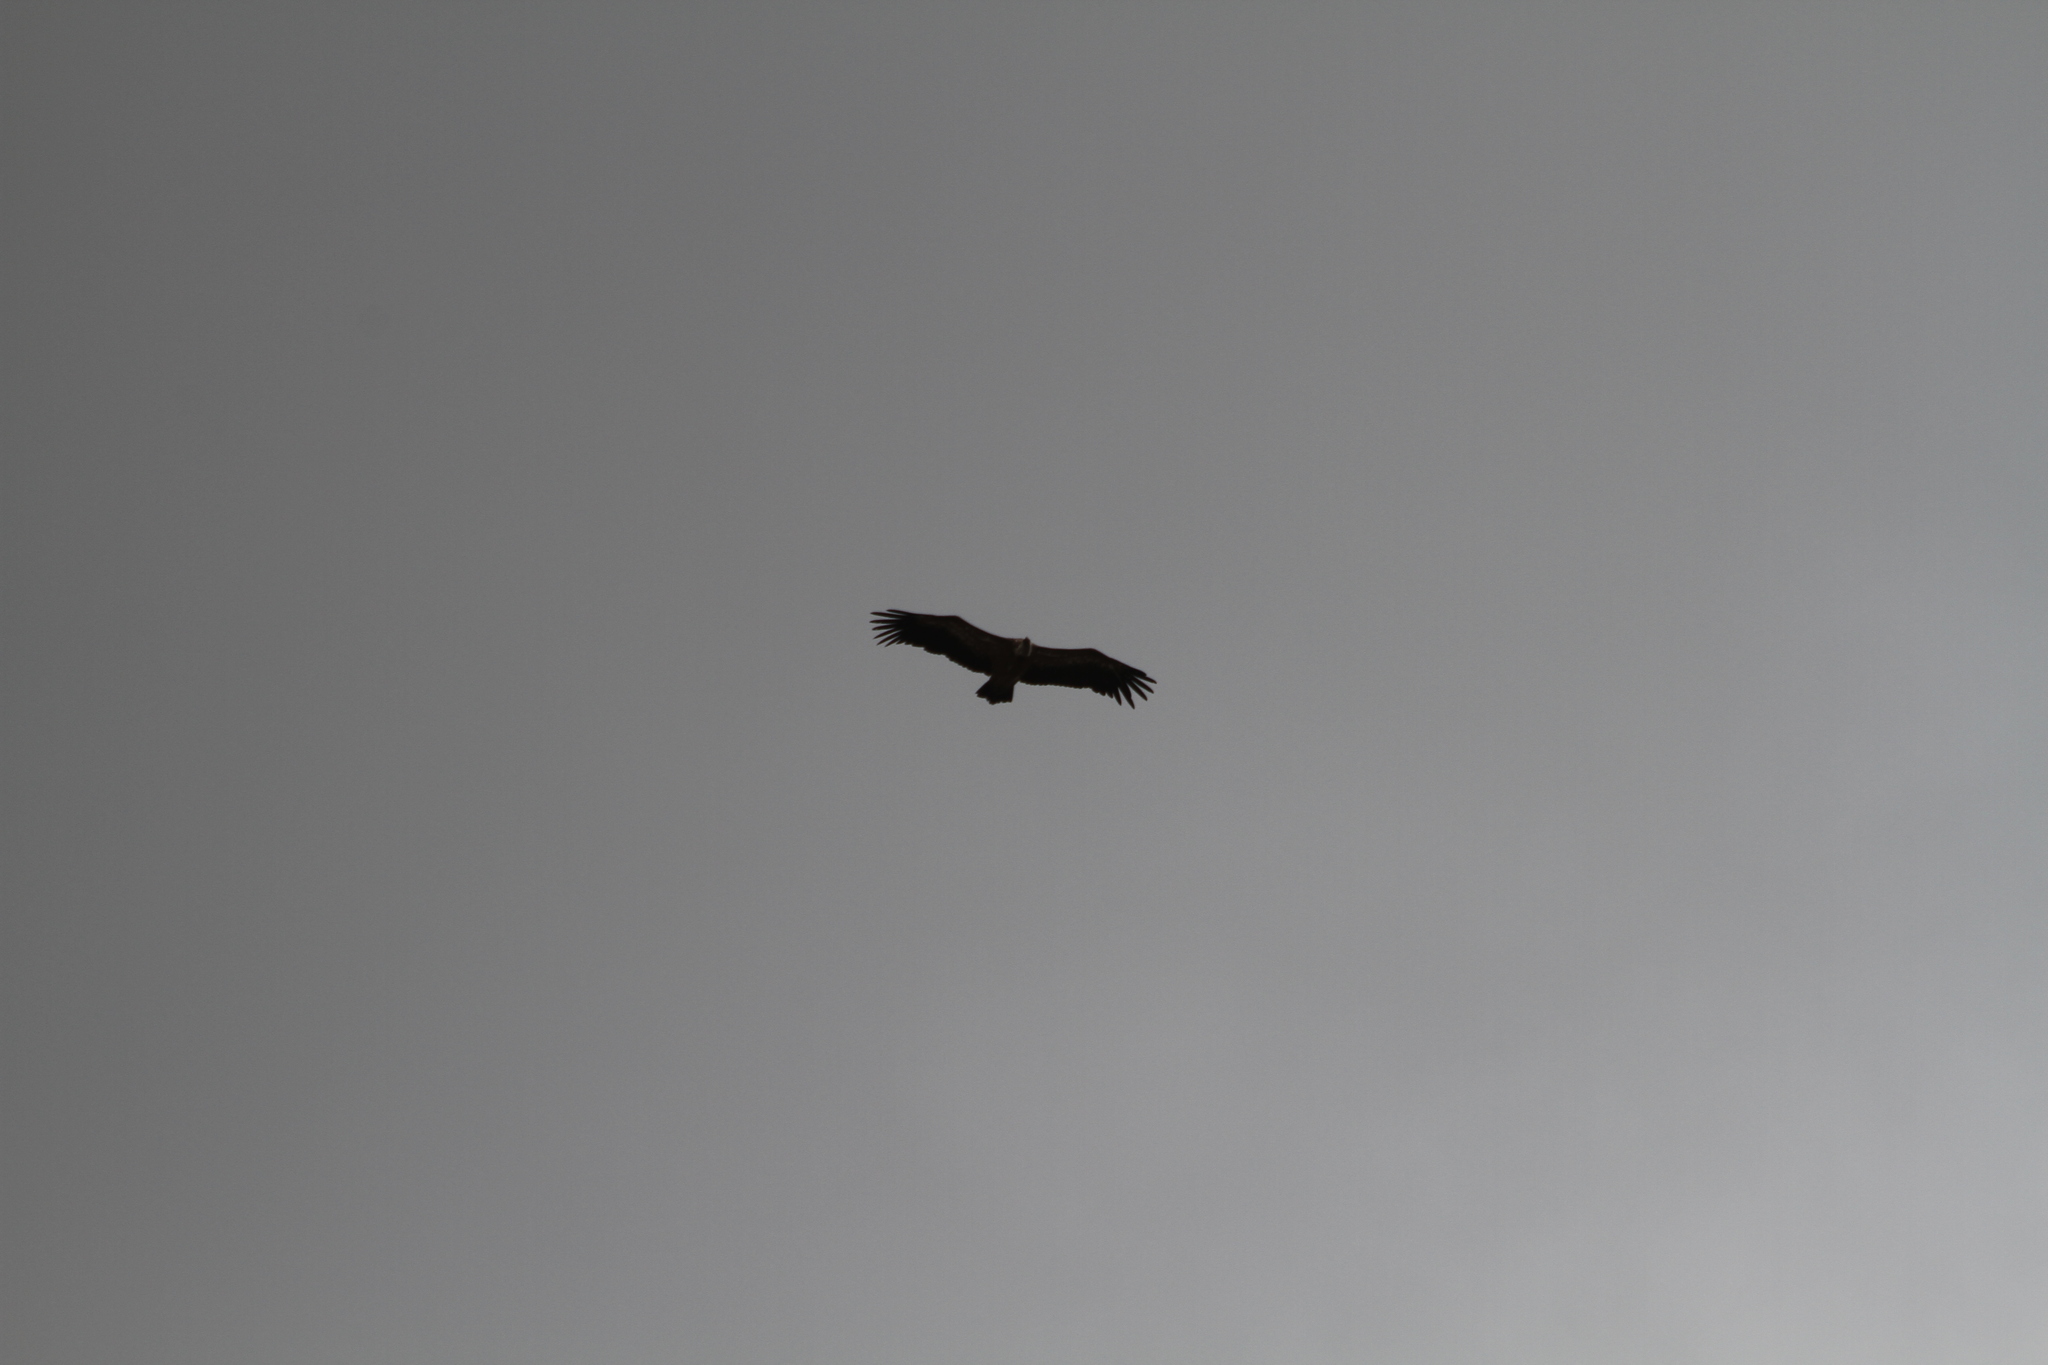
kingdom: Animalia
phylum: Chordata
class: Aves
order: Accipitriformes
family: Accipitridae
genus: Gyps
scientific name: Gyps fulvus
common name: Griffon vulture
